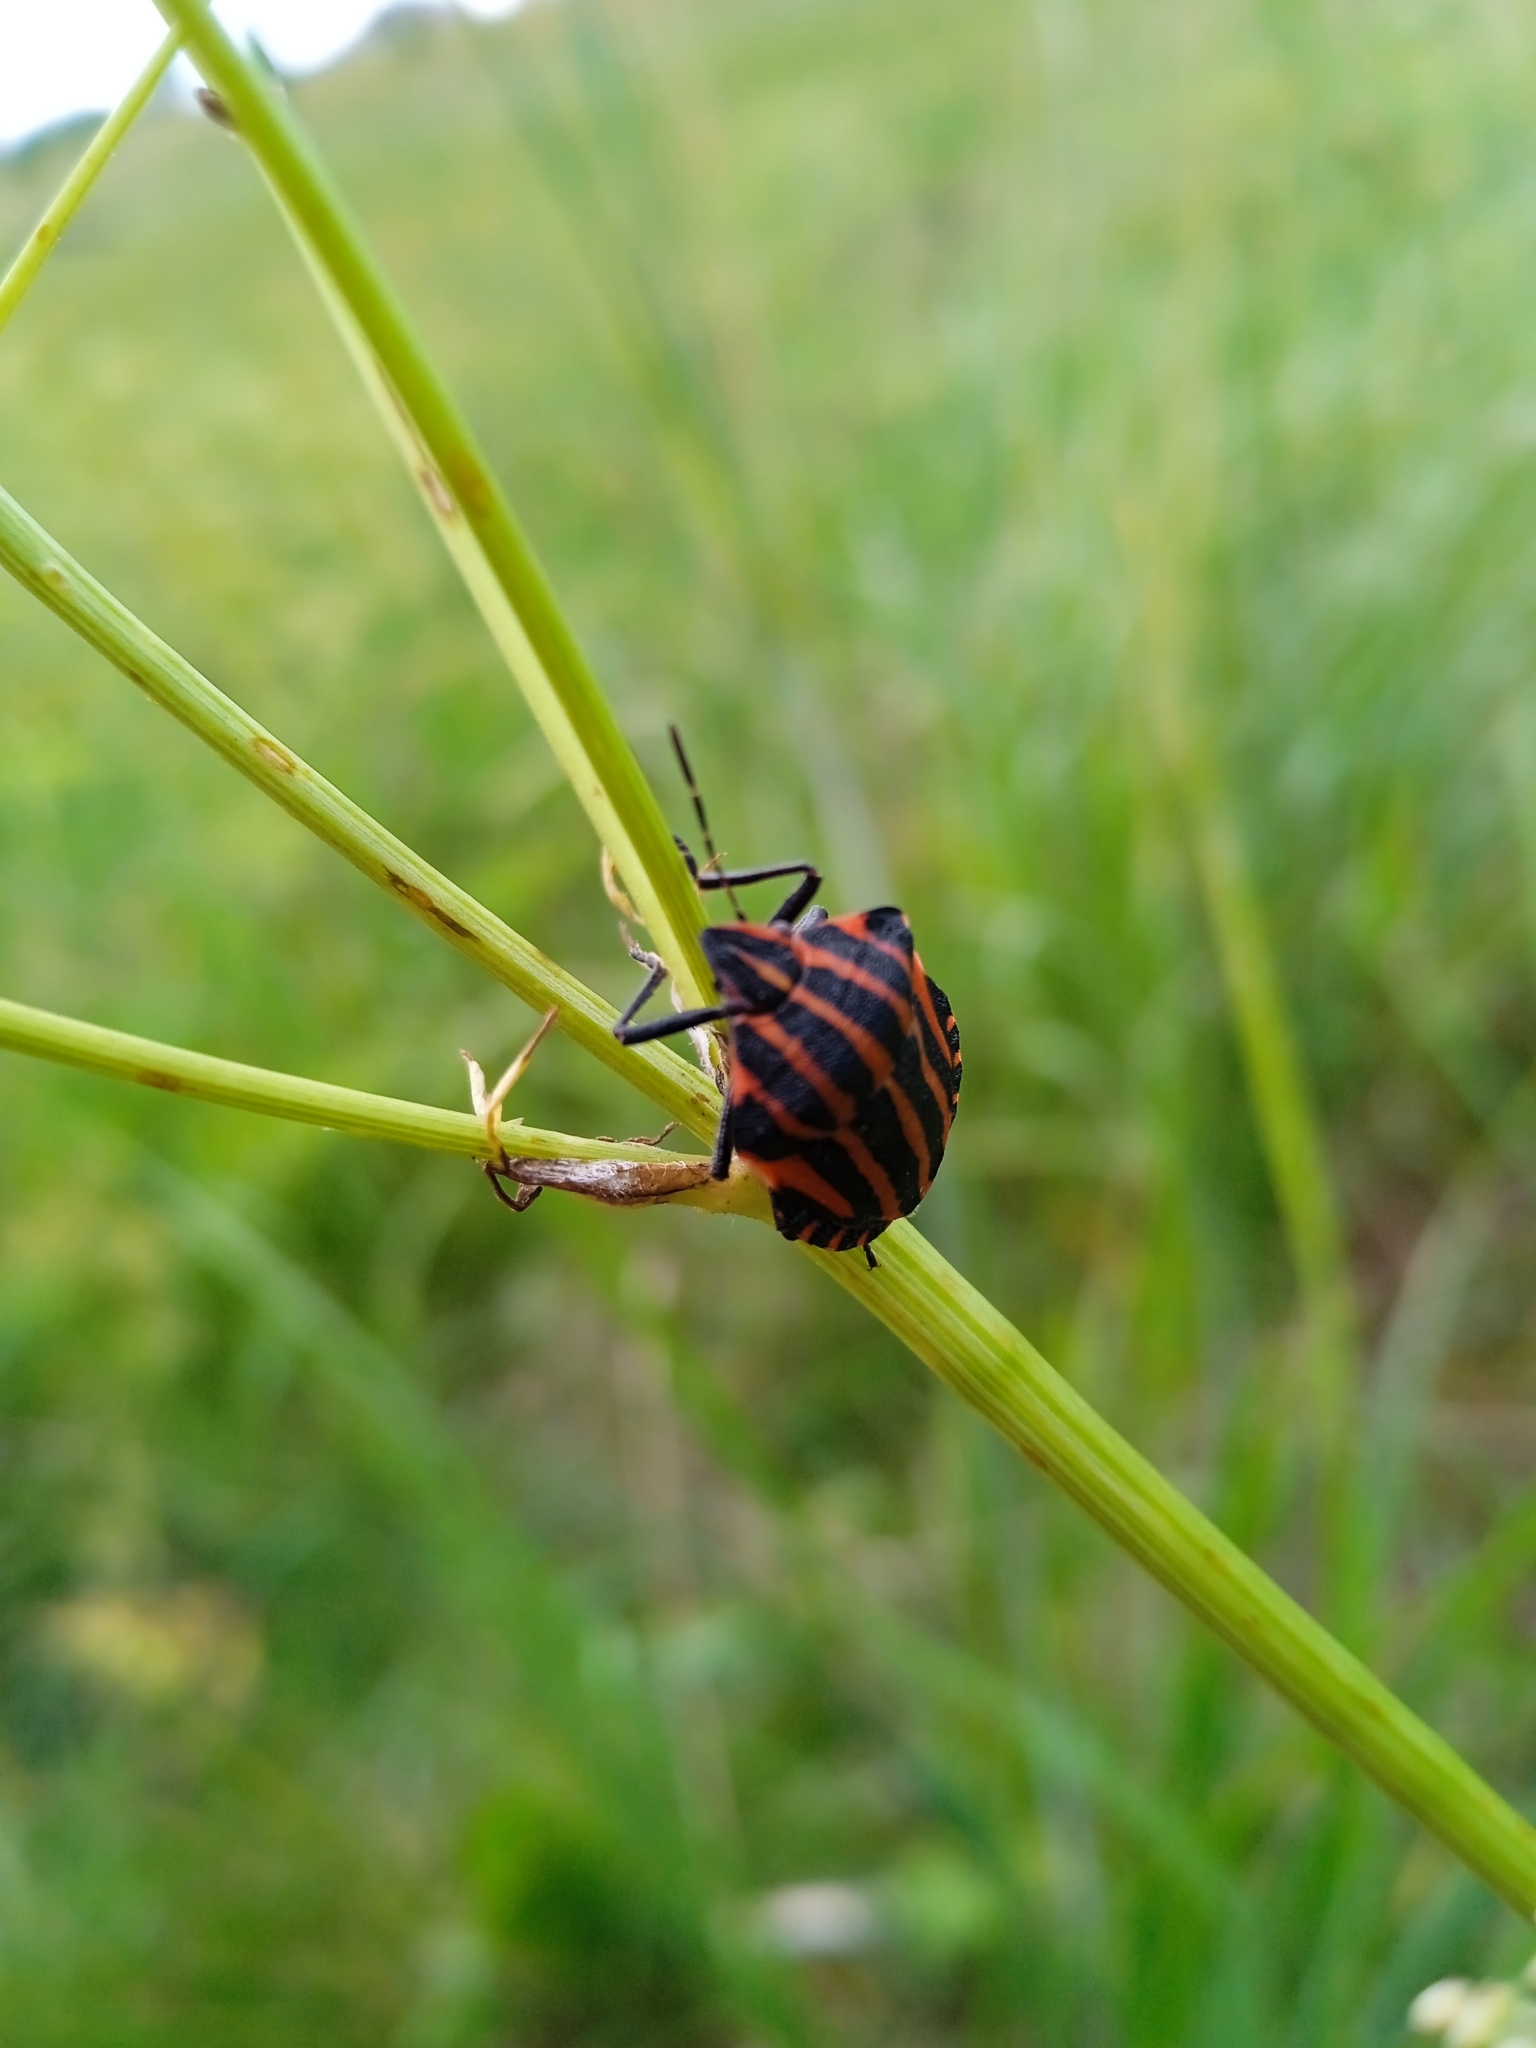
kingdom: Animalia
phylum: Arthropoda
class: Insecta
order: Hemiptera
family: Pentatomidae
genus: Graphosoma
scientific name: Graphosoma italicum
